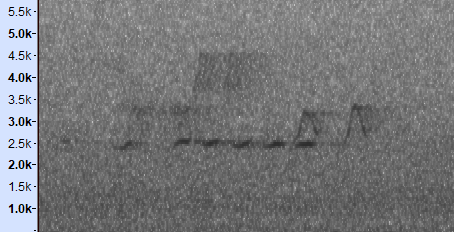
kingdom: Animalia
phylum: Chordata
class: Aves
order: Passeriformes
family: Timaliidae
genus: Stachyridopsis
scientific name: Stachyridopsis ruficeps
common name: Rufous-capped babbler
